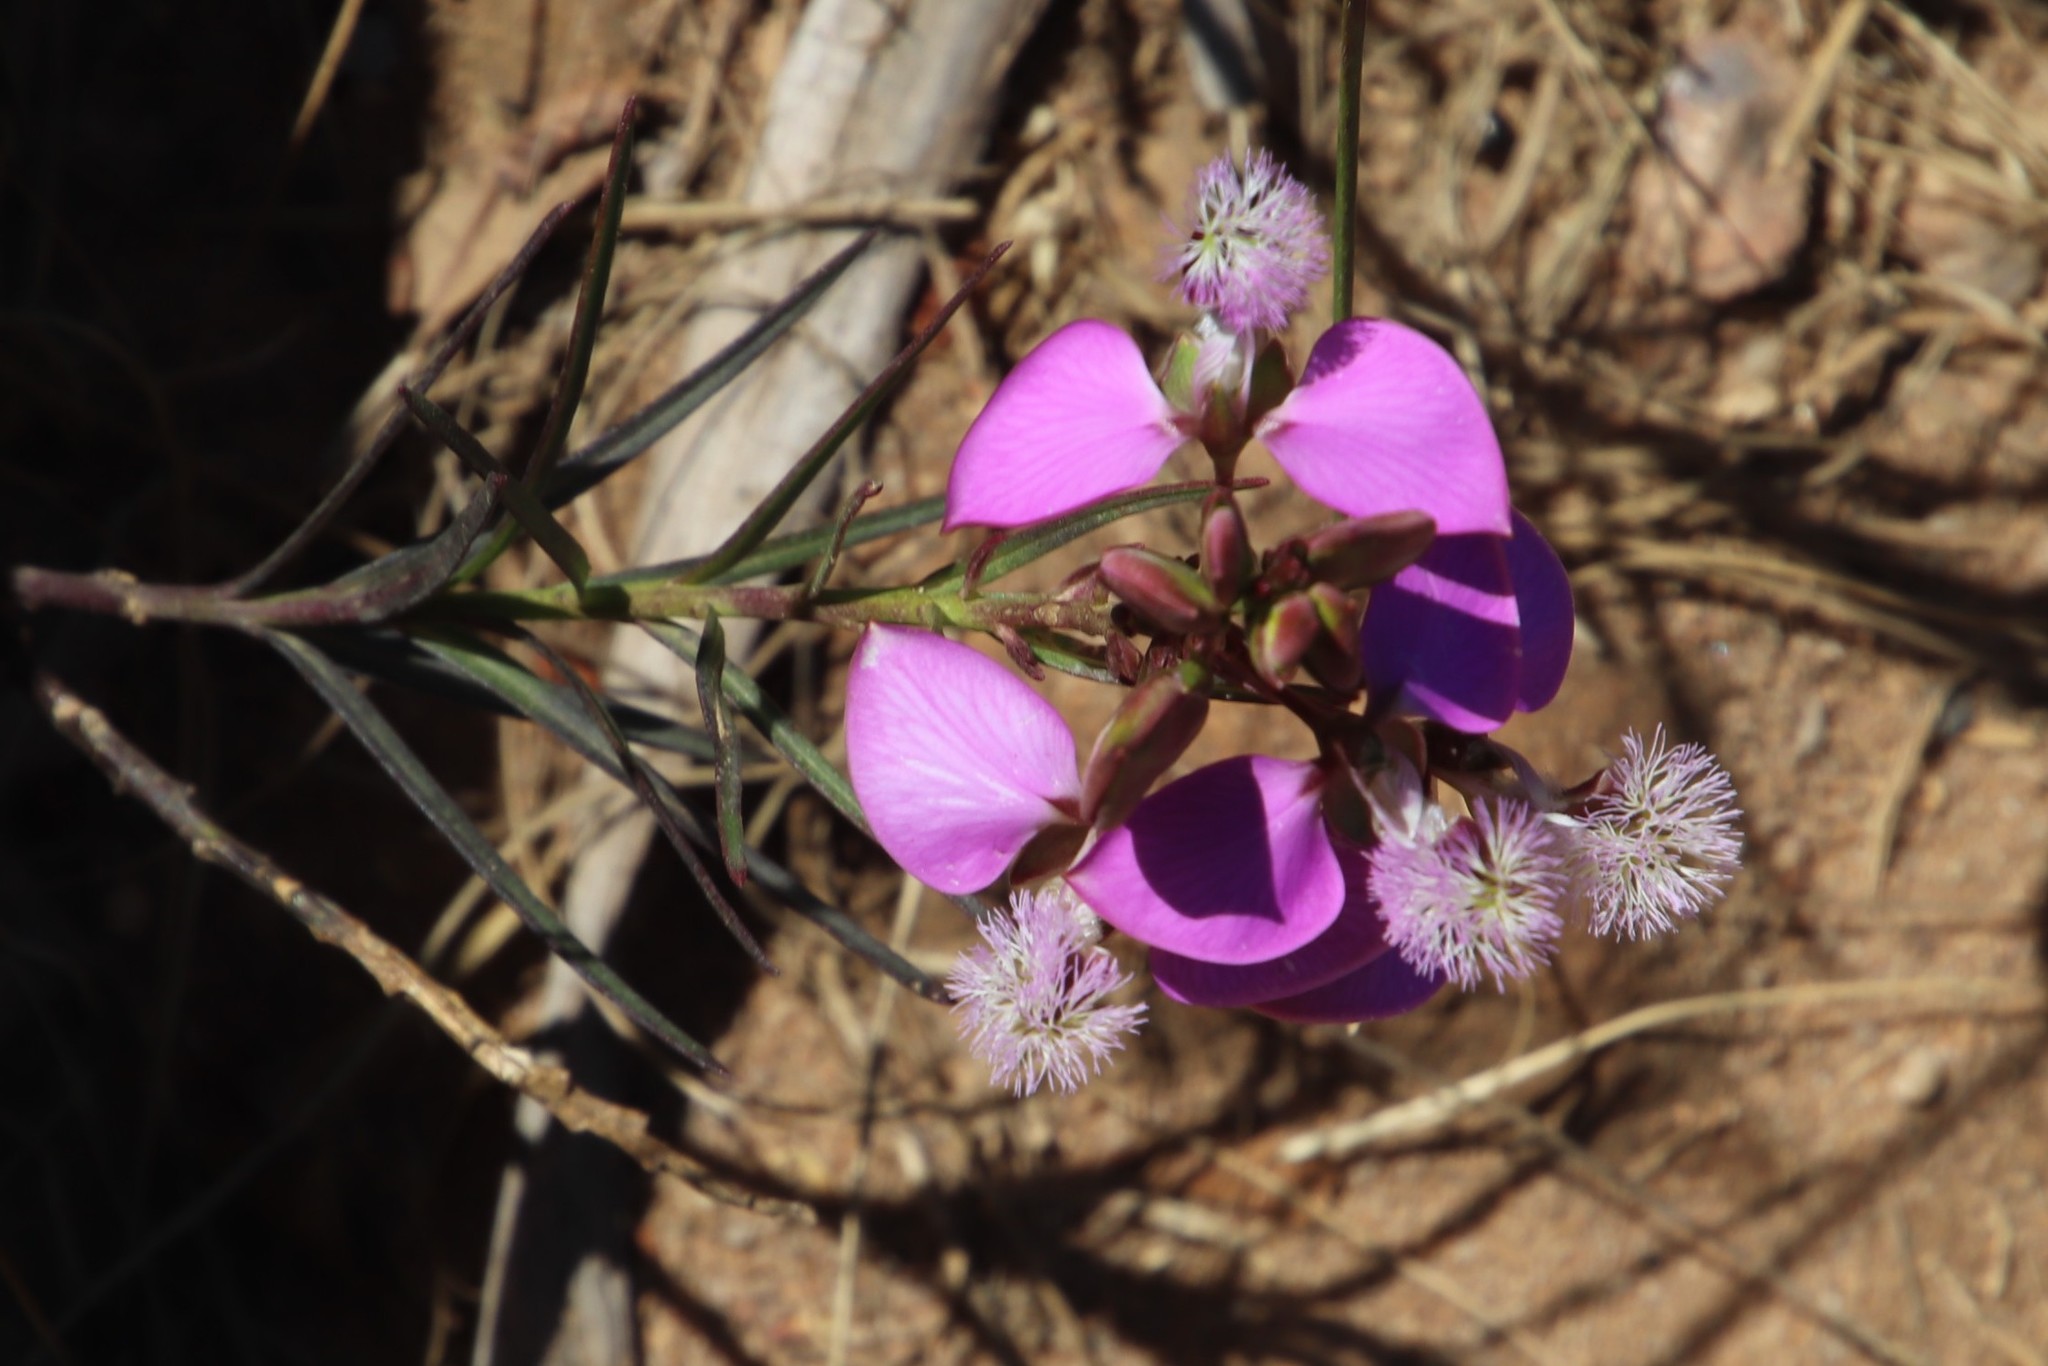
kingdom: Plantae
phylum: Tracheophyta
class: Magnoliopsida
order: Fabales
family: Polygalaceae
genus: Polygala
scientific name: Polygala bracteolata
